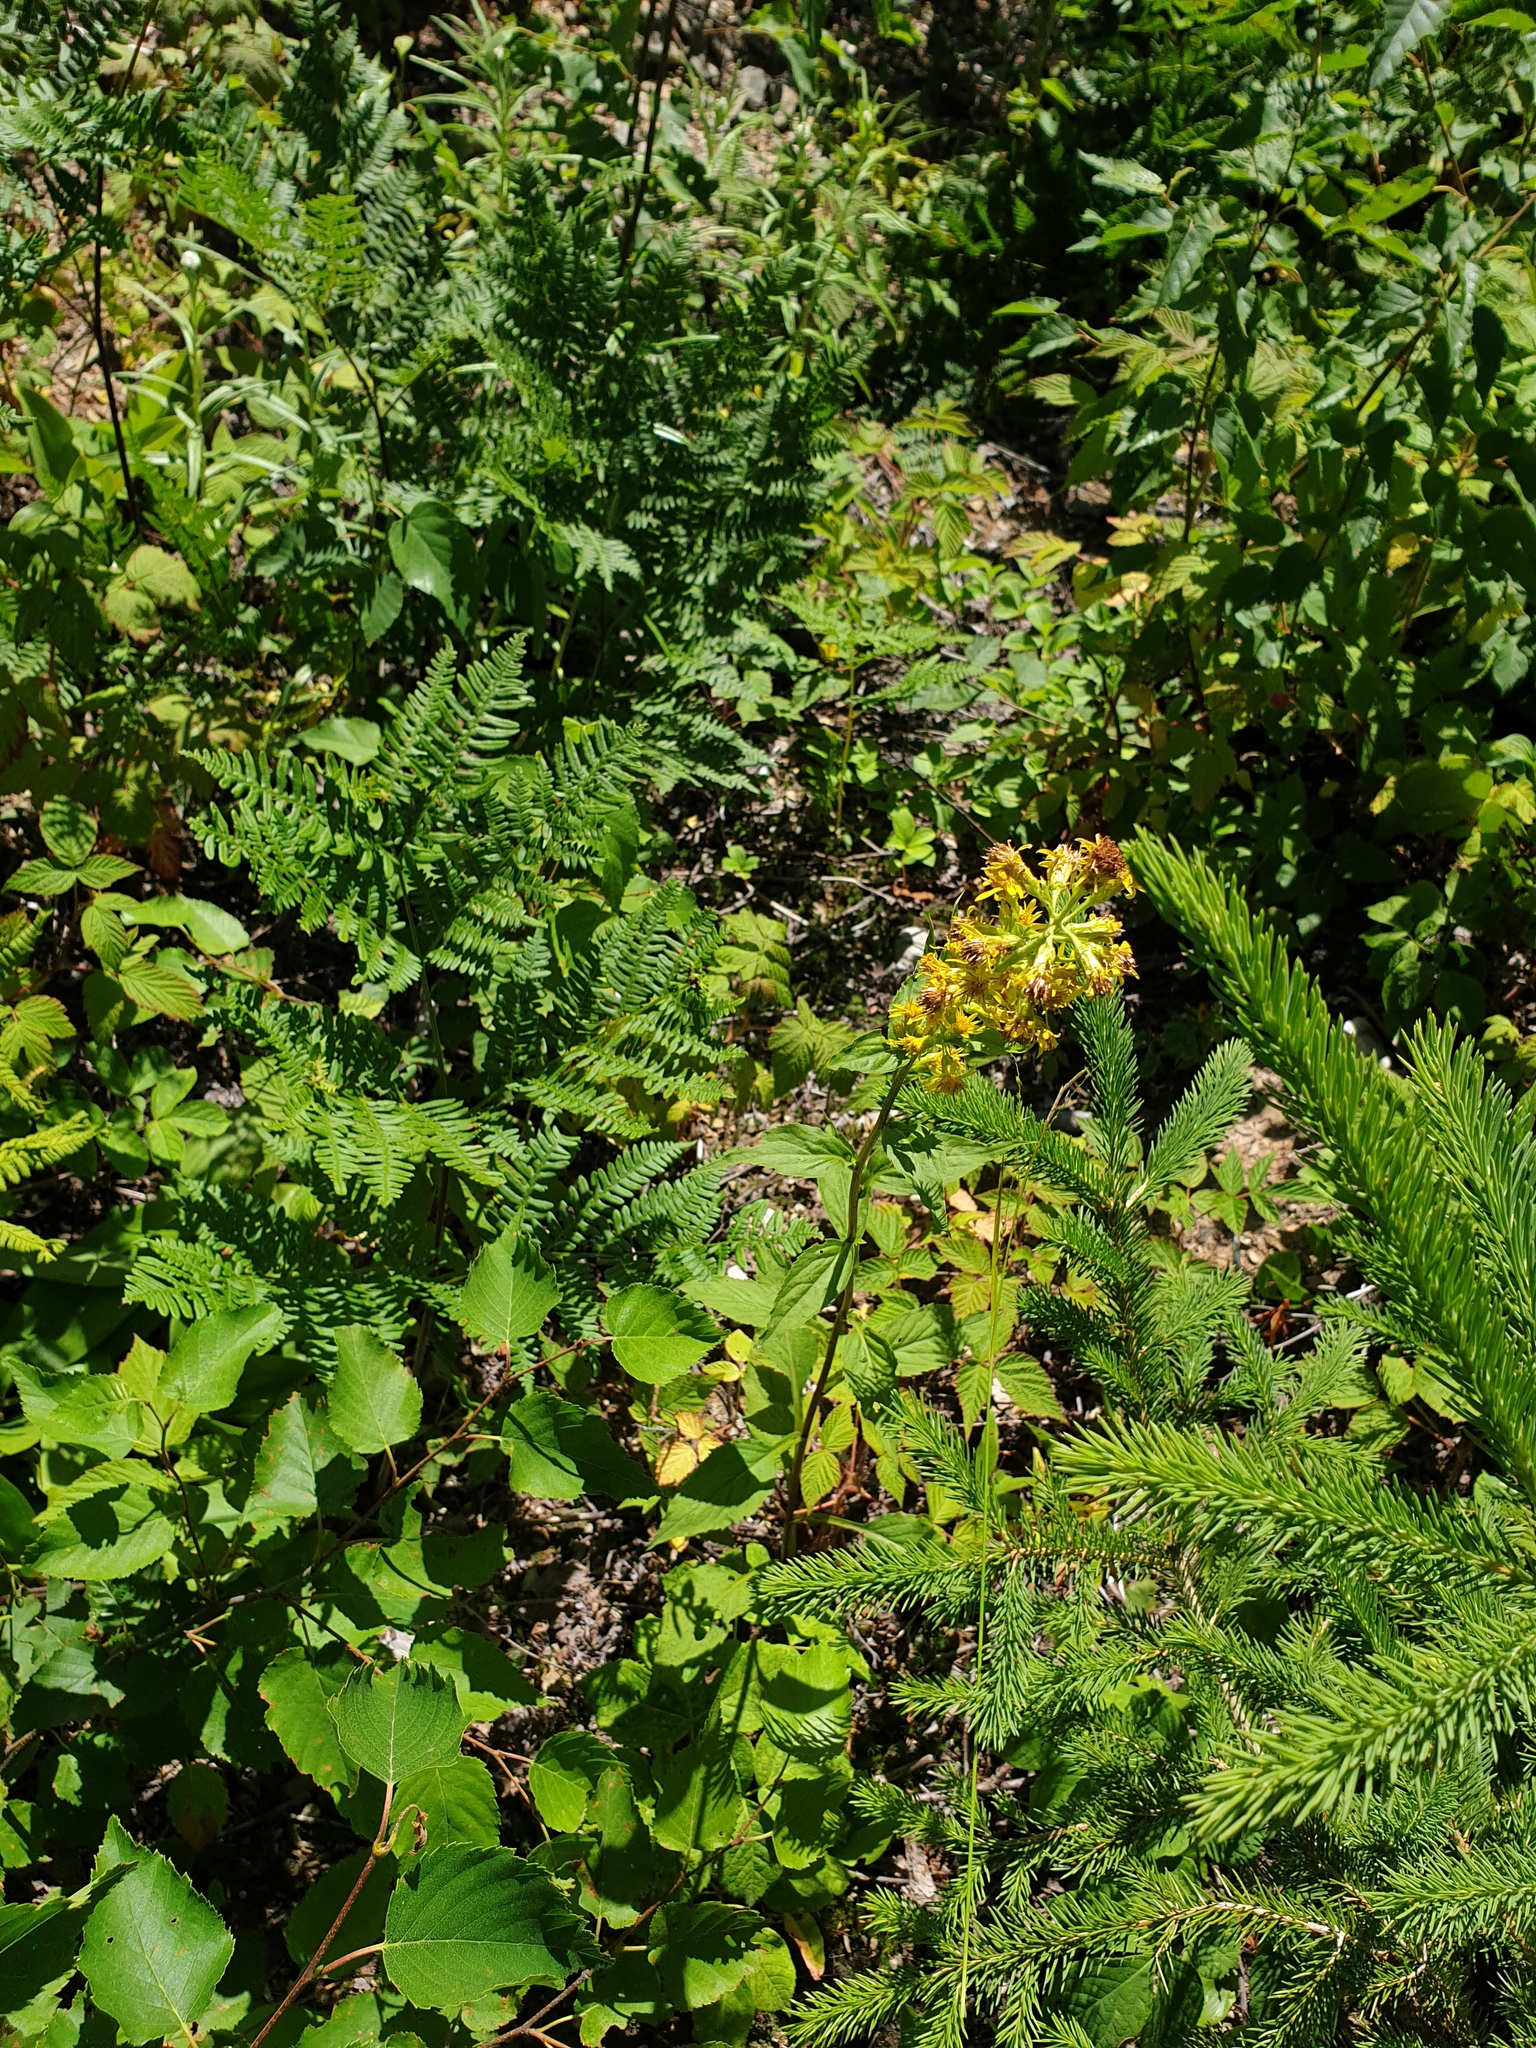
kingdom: Plantae
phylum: Tracheophyta
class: Magnoliopsida
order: Asterales
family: Asteraceae
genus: Solidago
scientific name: Solidago macrophylla
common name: Large-leaved goldenrod
